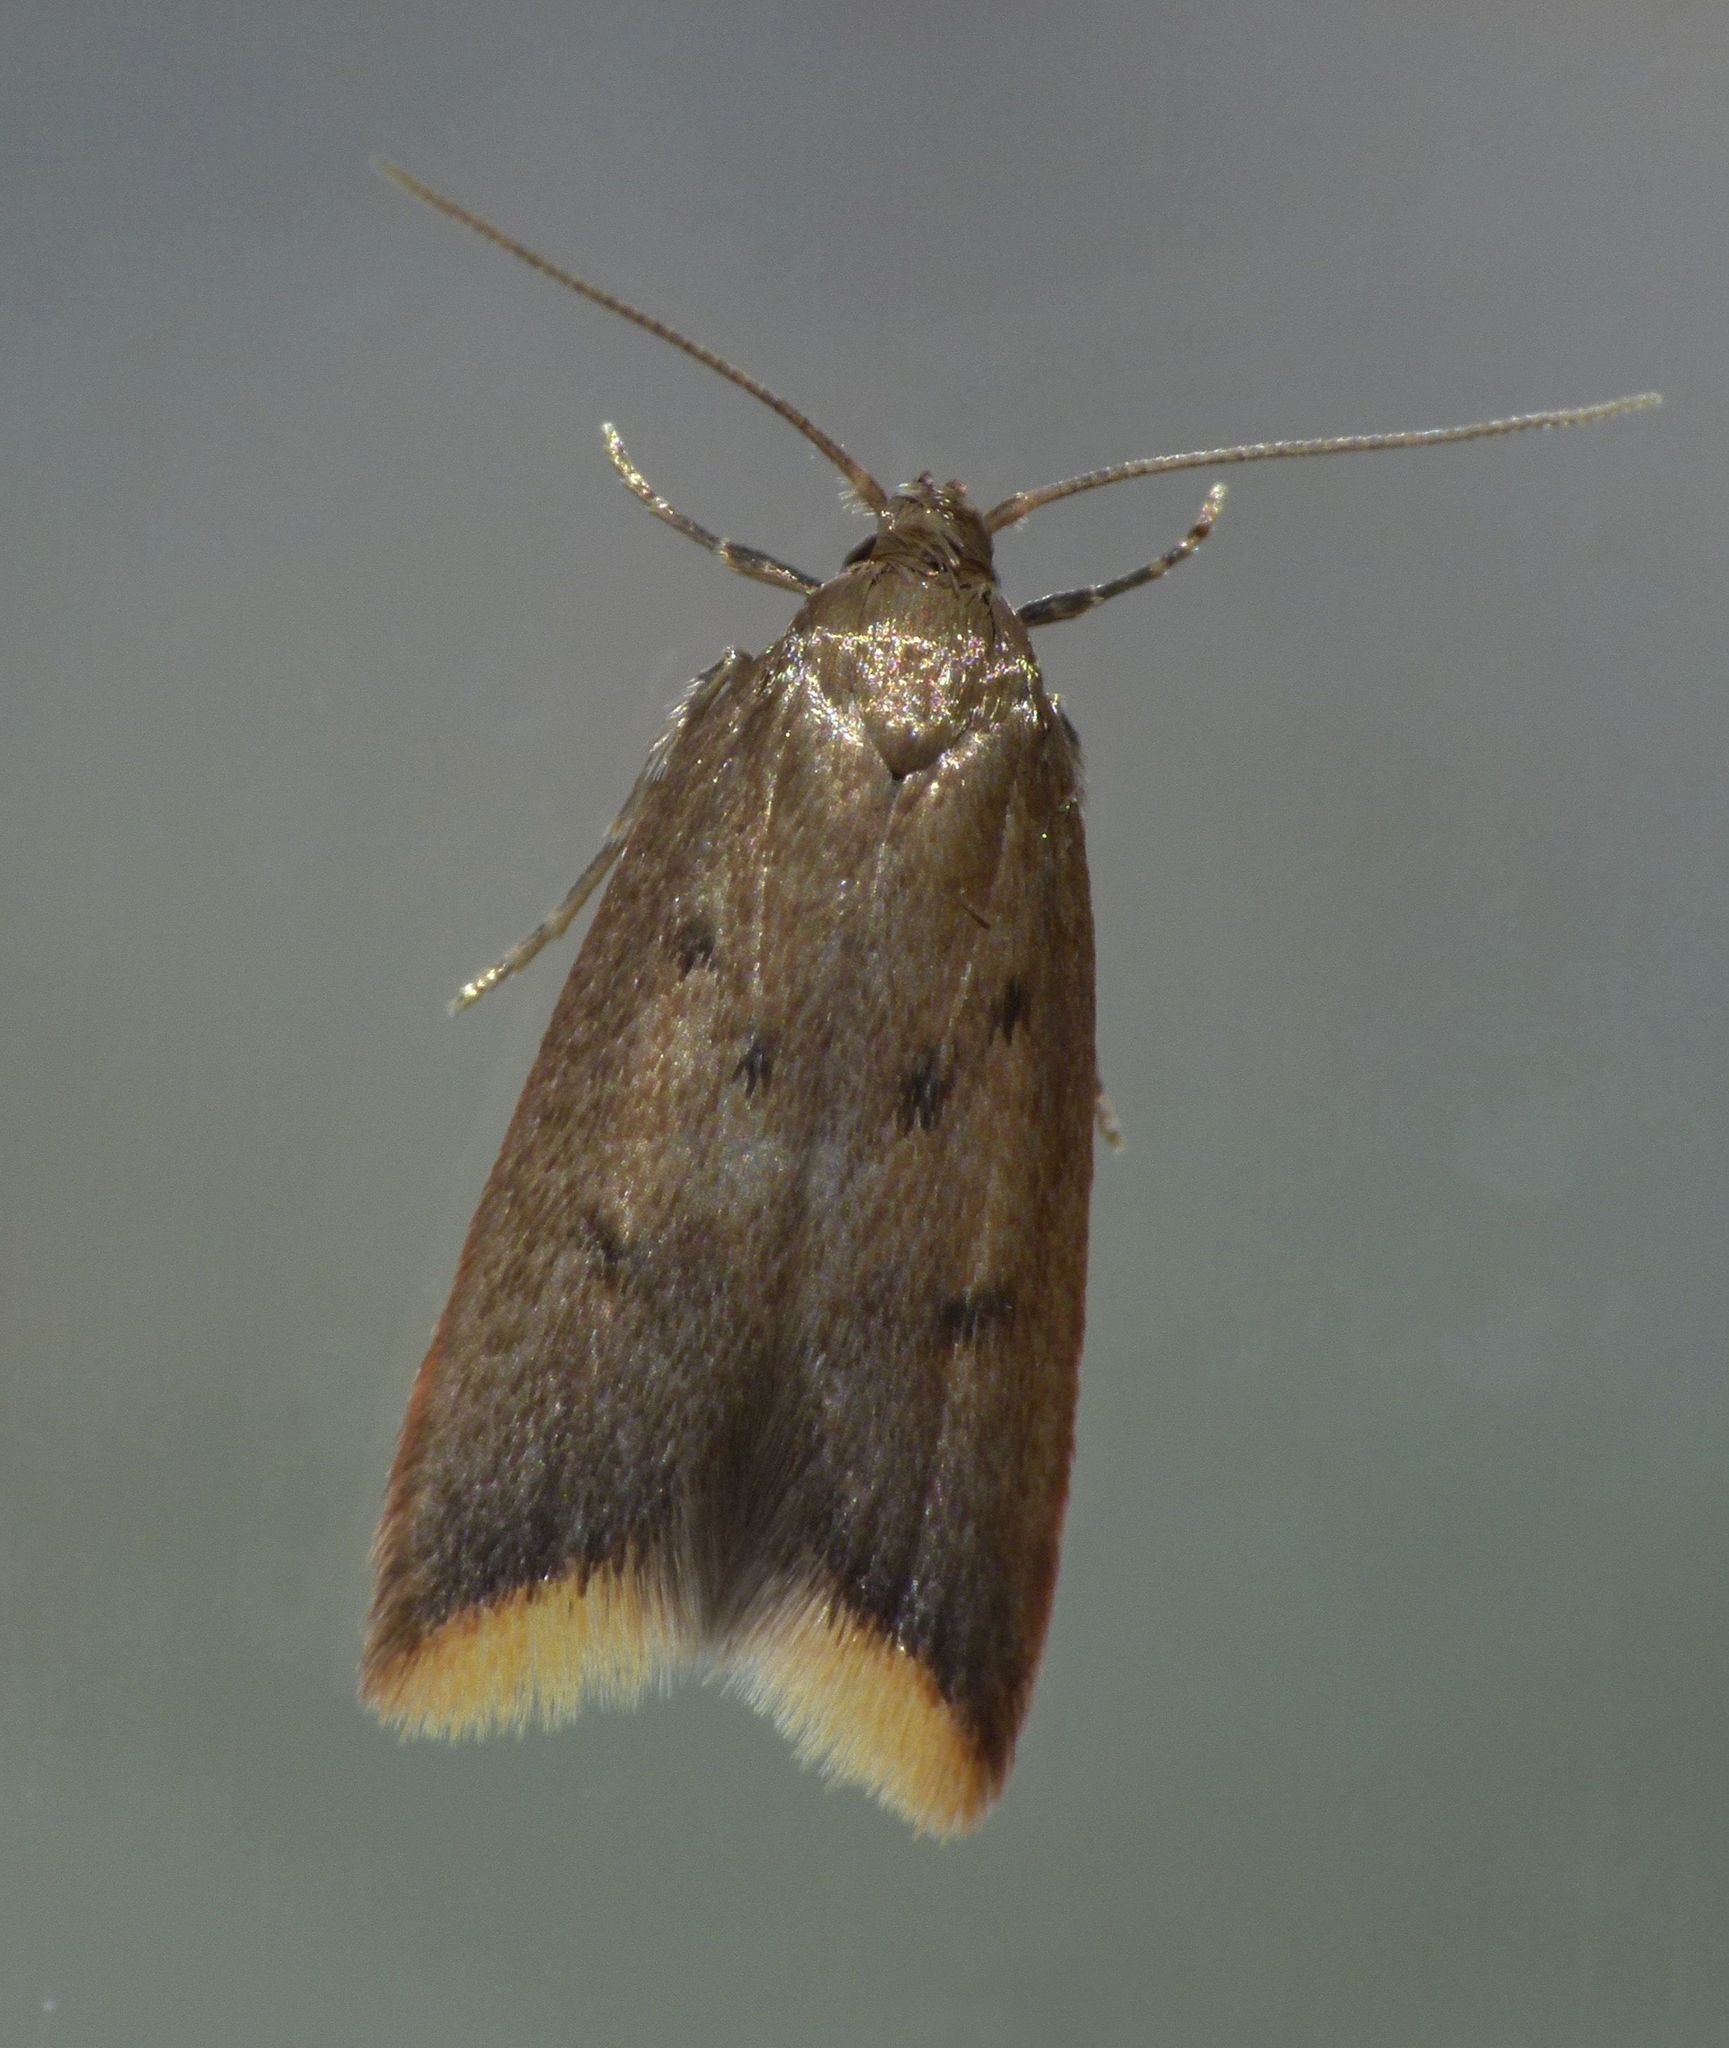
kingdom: Animalia
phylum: Arthropoda
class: Insecta
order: Lepidoptera
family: Oecophoridae
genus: Tachystola
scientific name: Tachystola acroxantha
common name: Ruddy streak
